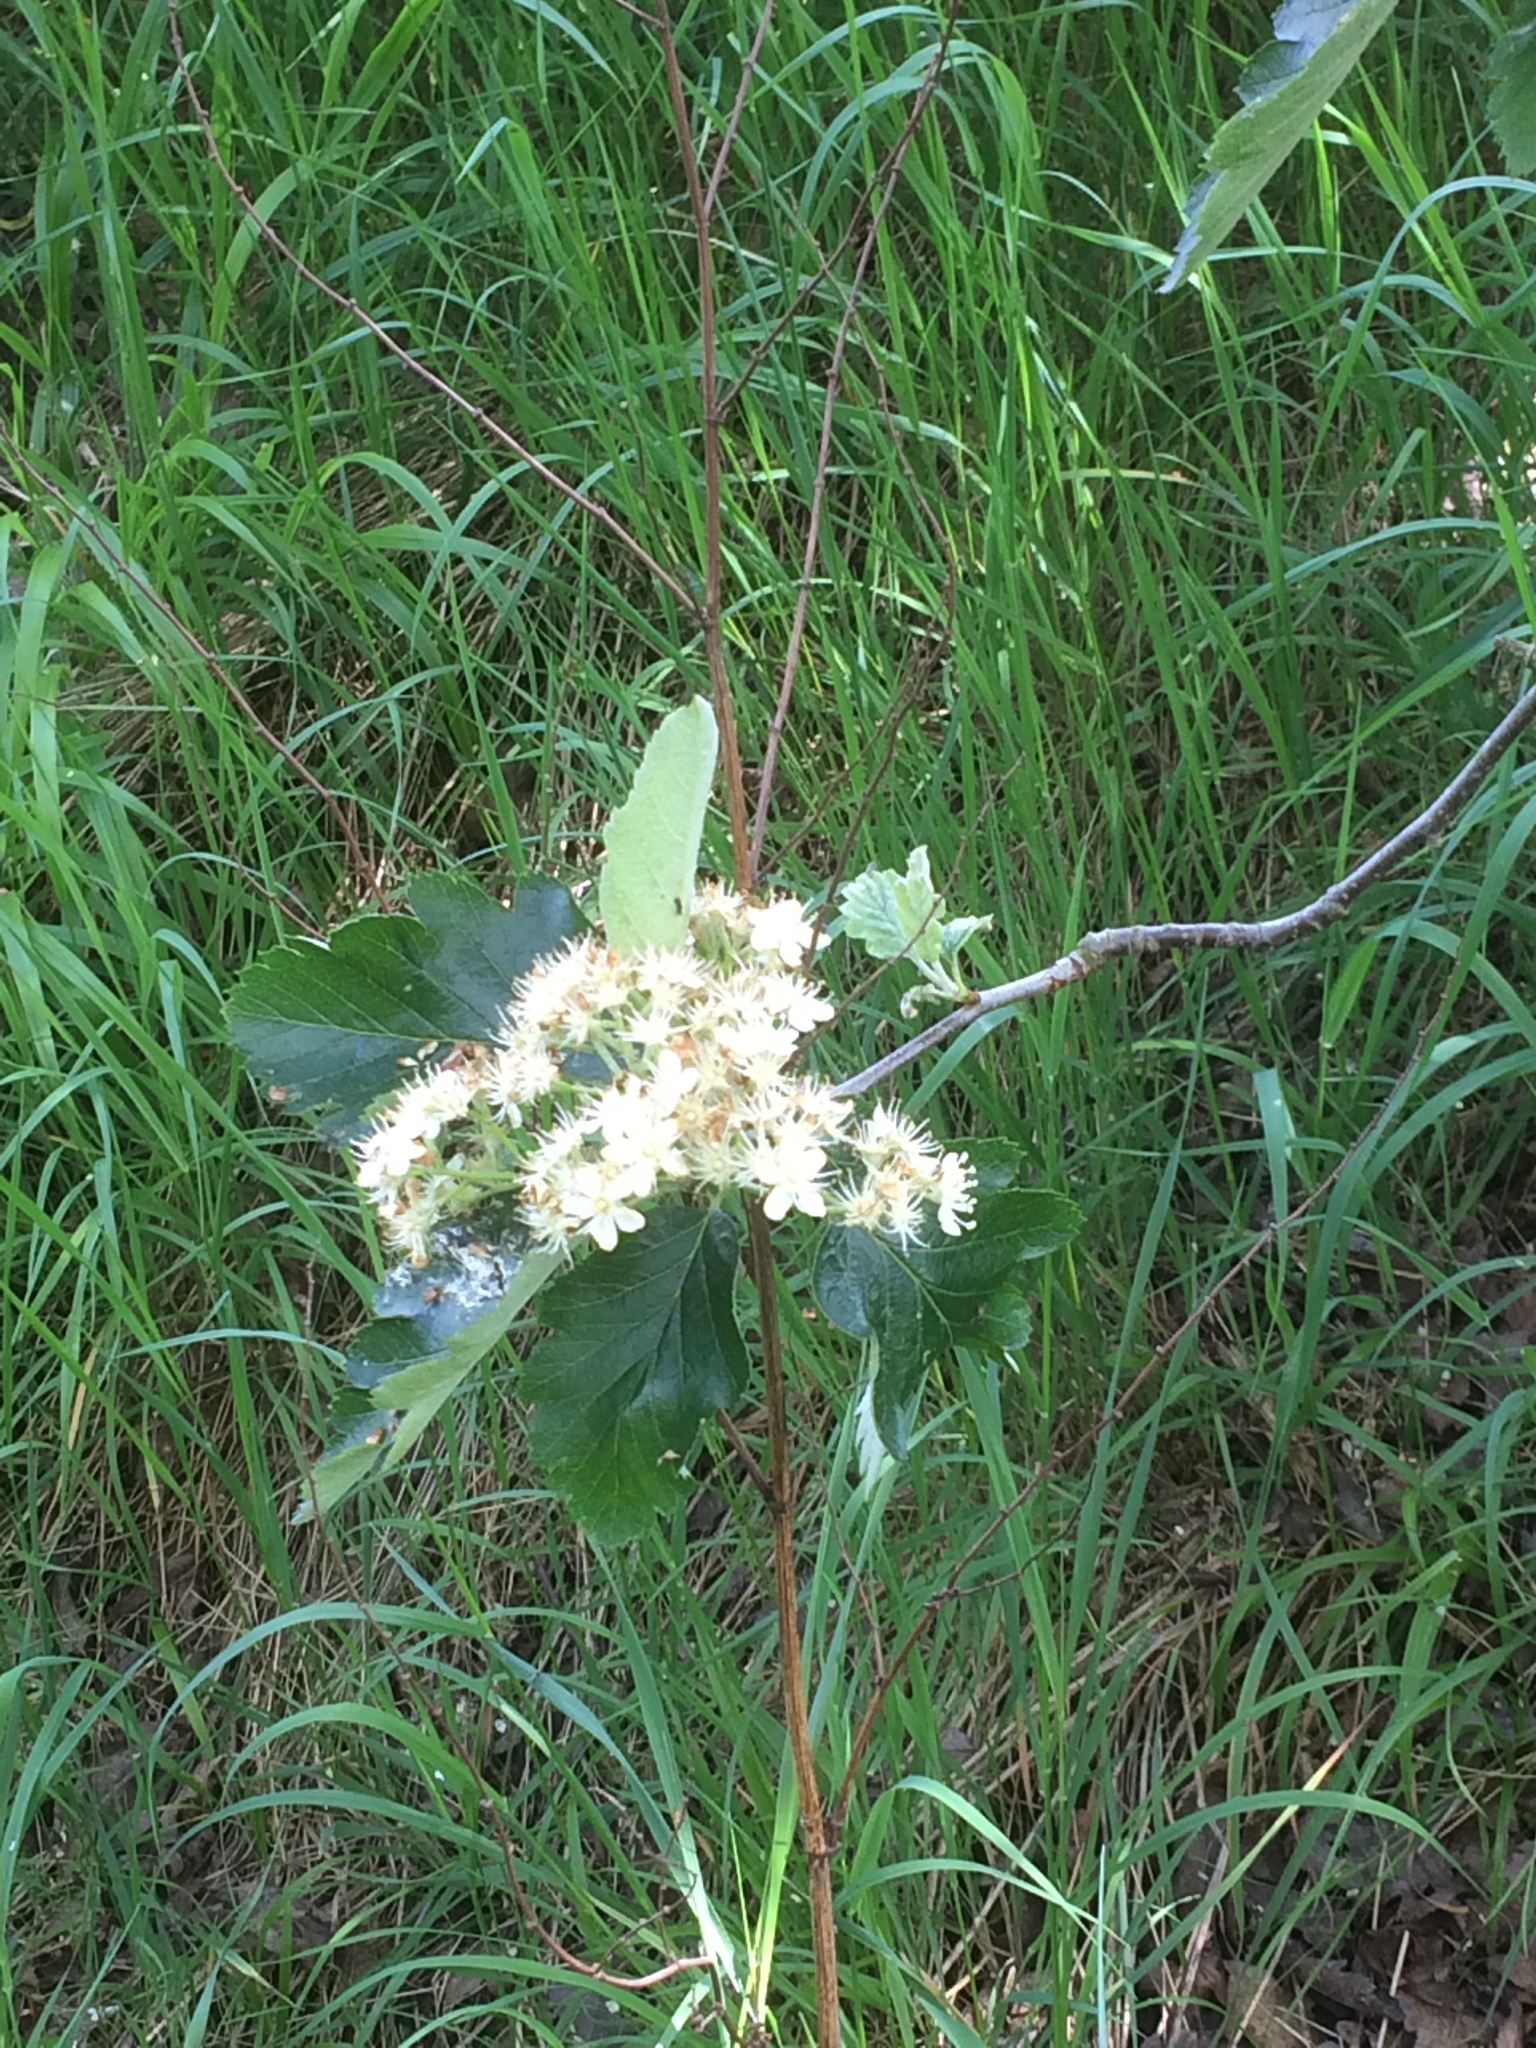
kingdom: Plantae
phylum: Tracheophyta
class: Magnoliopsida
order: Rosales
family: Rosaceae
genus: Scandosorbus
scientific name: Scandosorbus intermedia
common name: Swedish whitebeam
